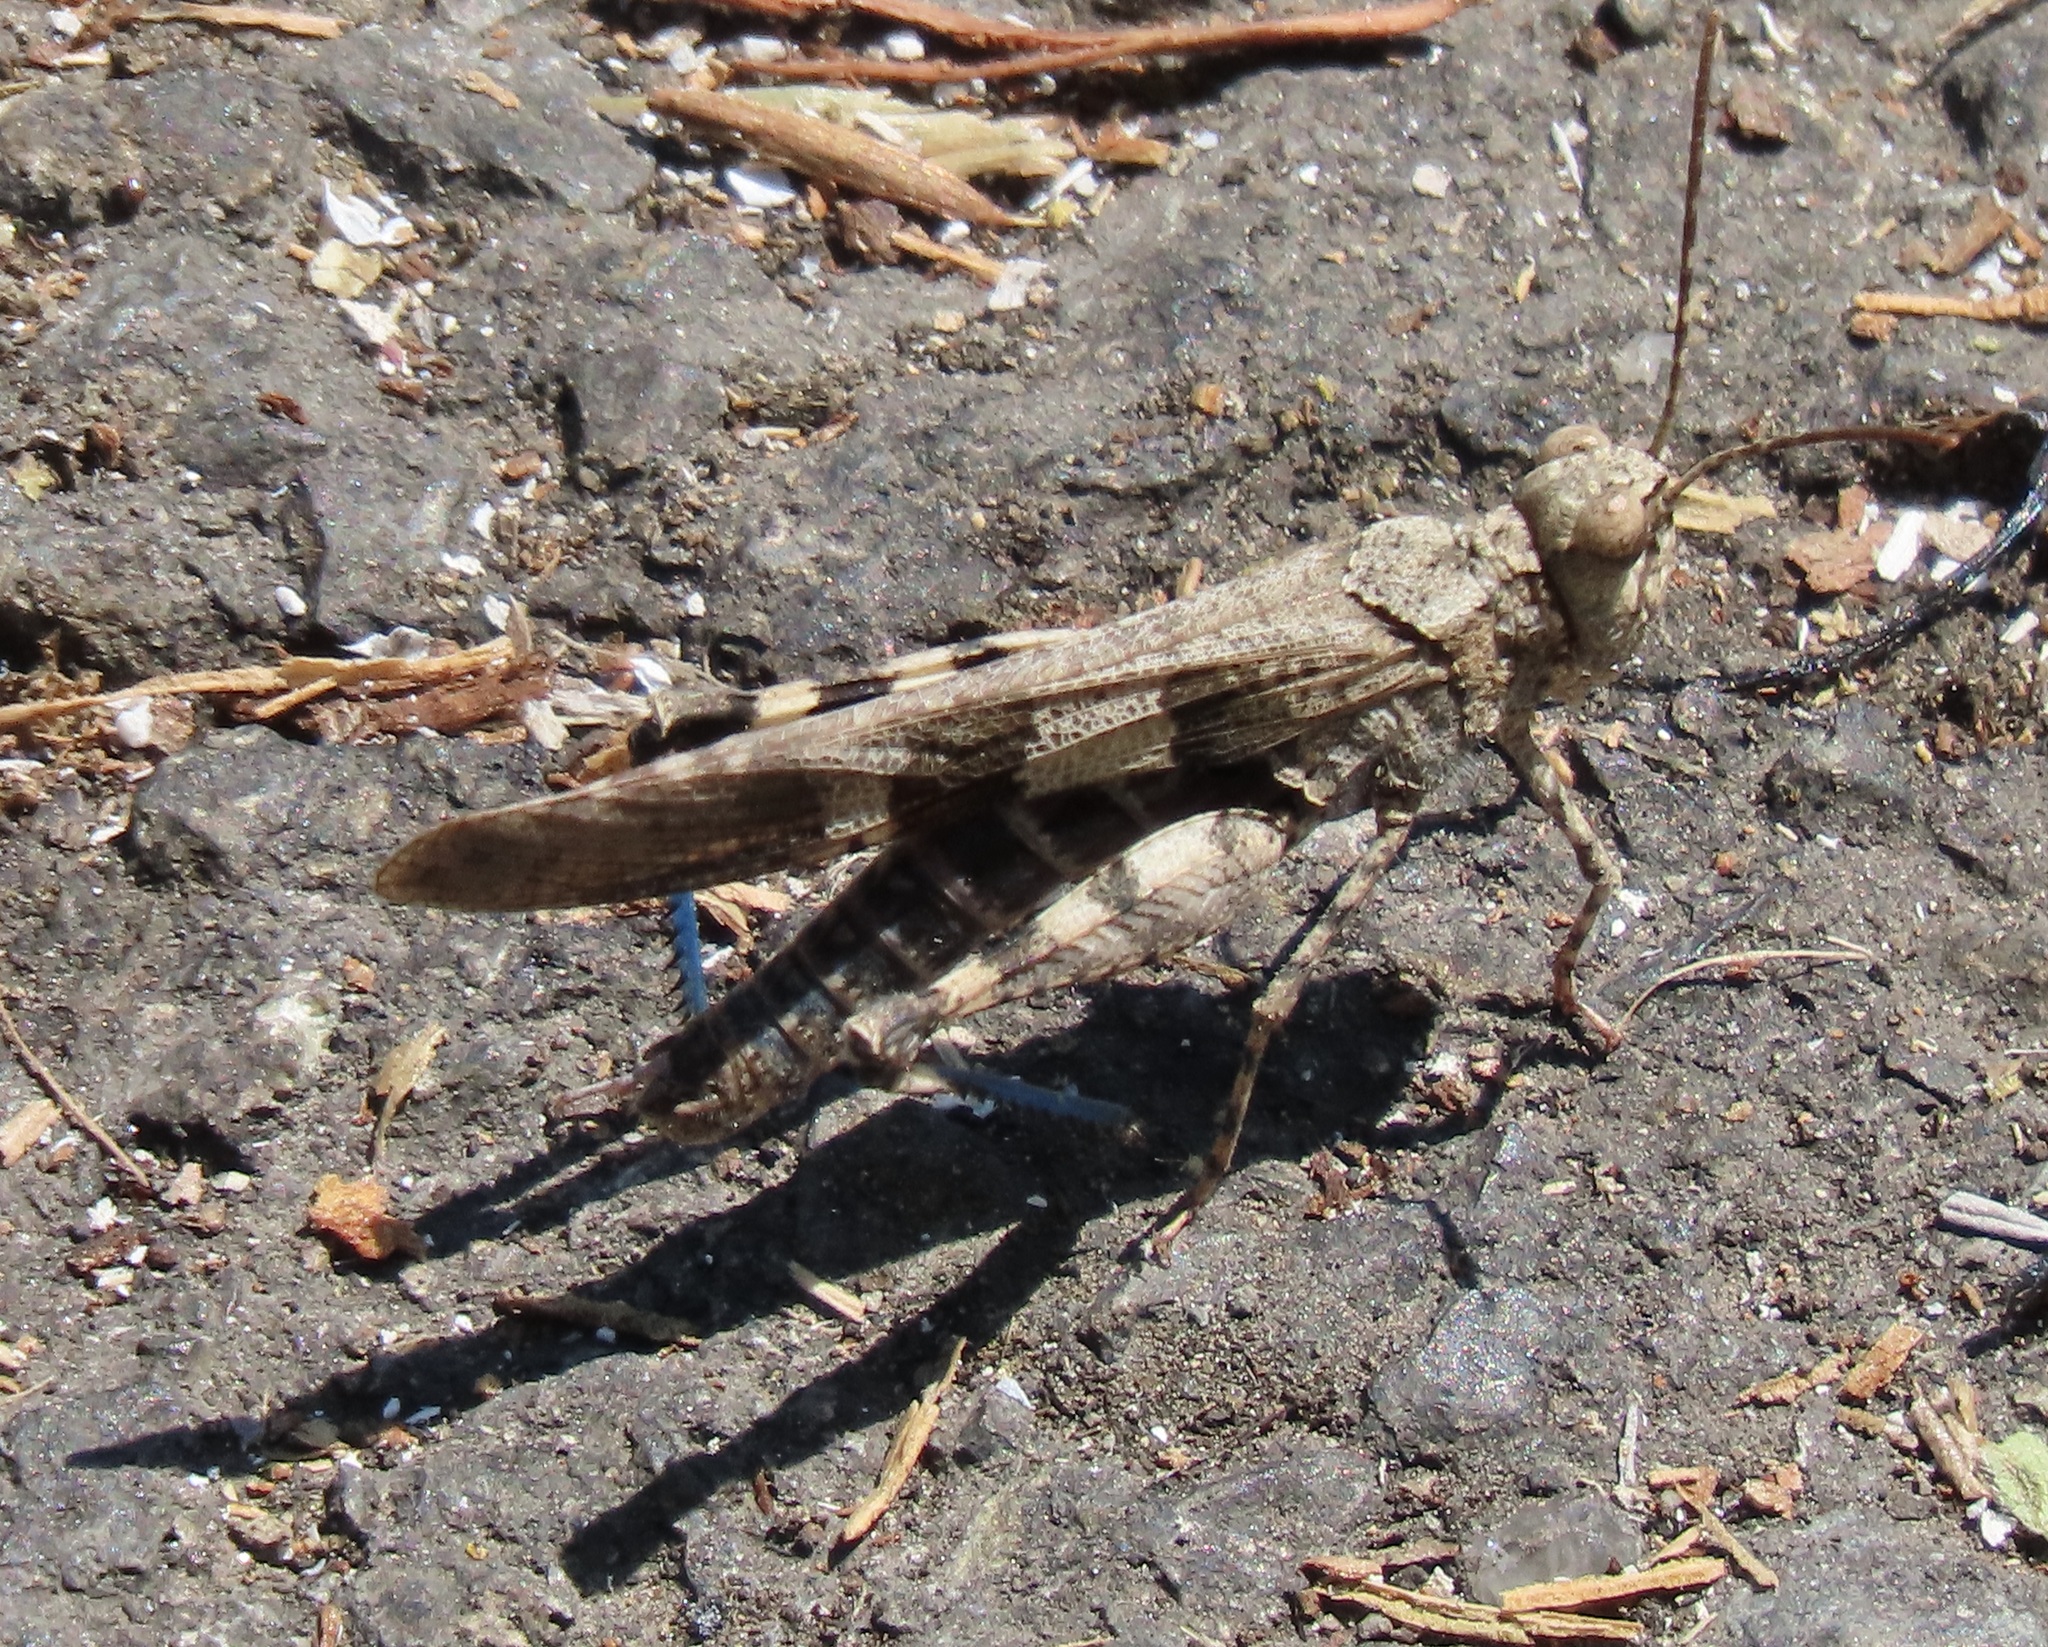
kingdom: Animalia
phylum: Arthropoda
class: Insecta
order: Orthoptera
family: Acrididae
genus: Trimerotropis
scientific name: Trimerotropis fontana
